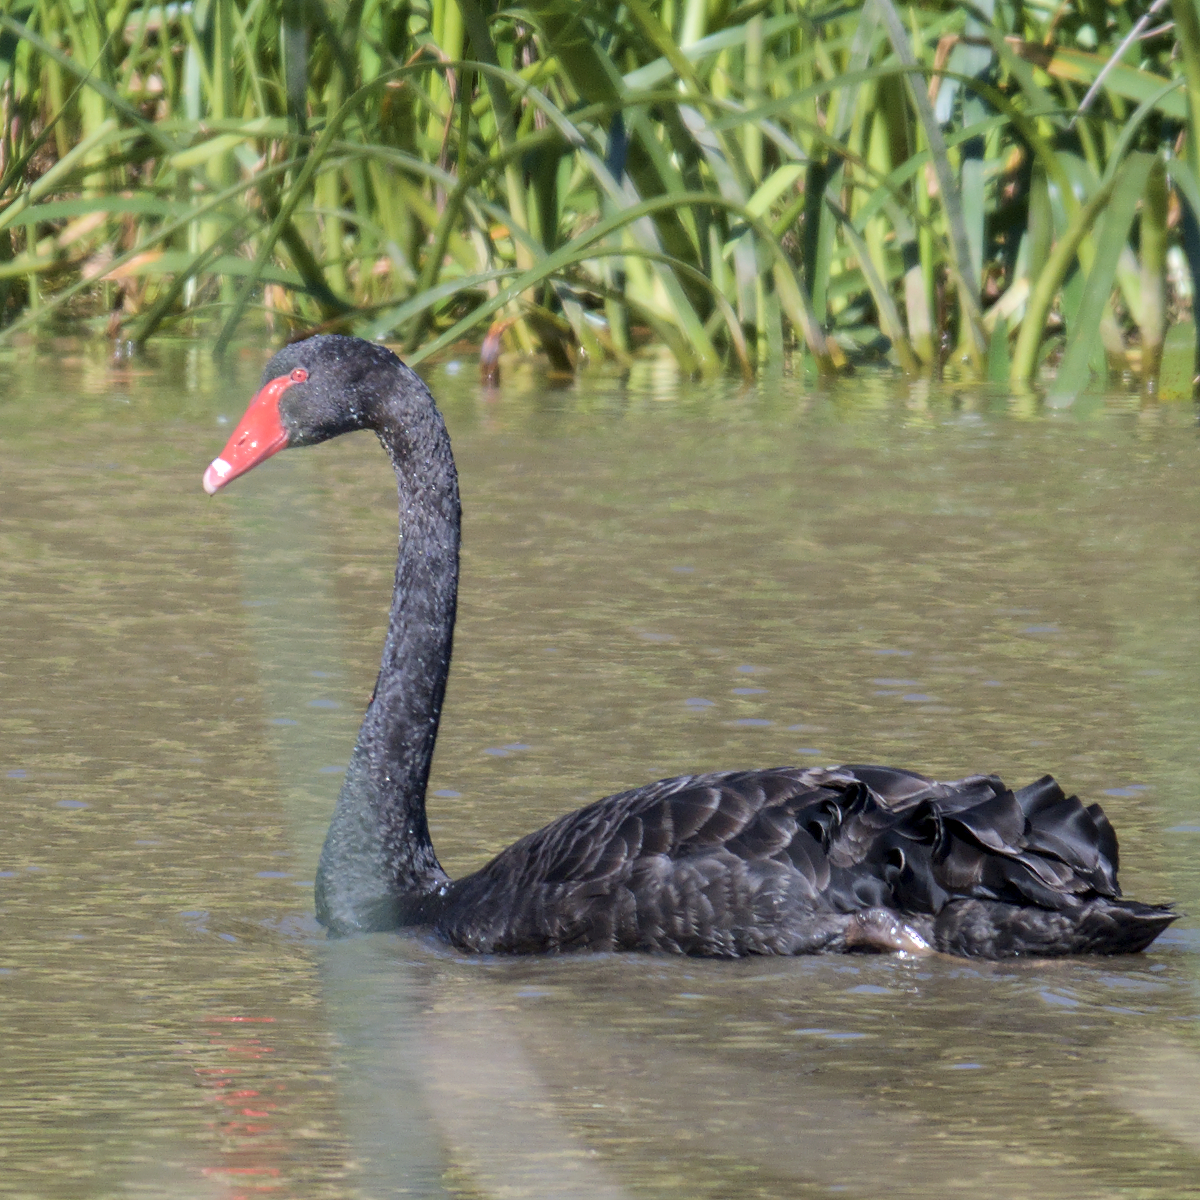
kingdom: Animalia
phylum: Chordata
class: Aves
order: Anseriformes
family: Anatidae
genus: Cygnus
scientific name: Cygnus atratus
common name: Black swan
